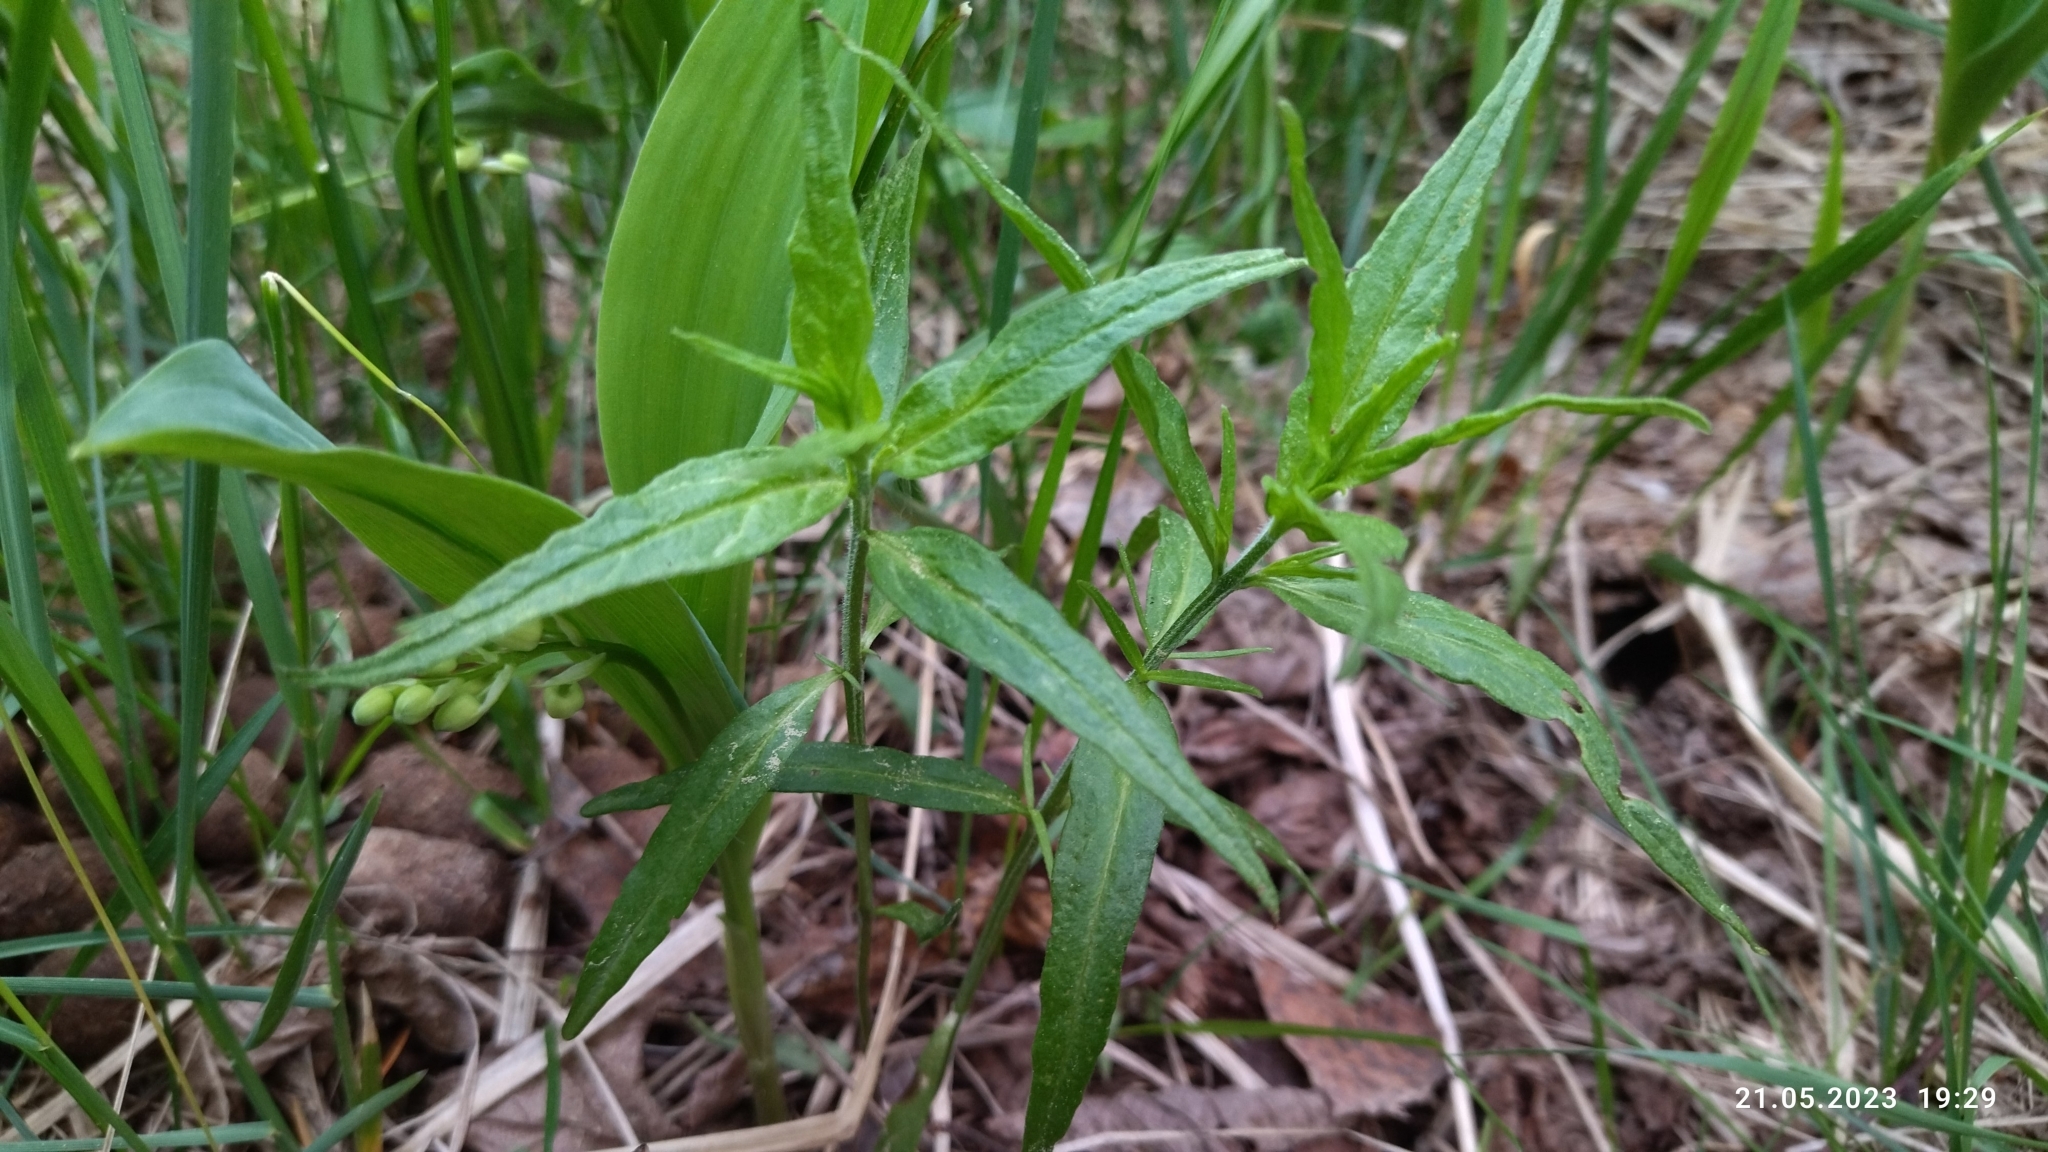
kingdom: Plantae
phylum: Tracheophyta
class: Magnoliopsida
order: Lamiales
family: Orobanchaceae
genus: Melampyrum
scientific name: Melampyrum pratense
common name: Common cow-wheat
